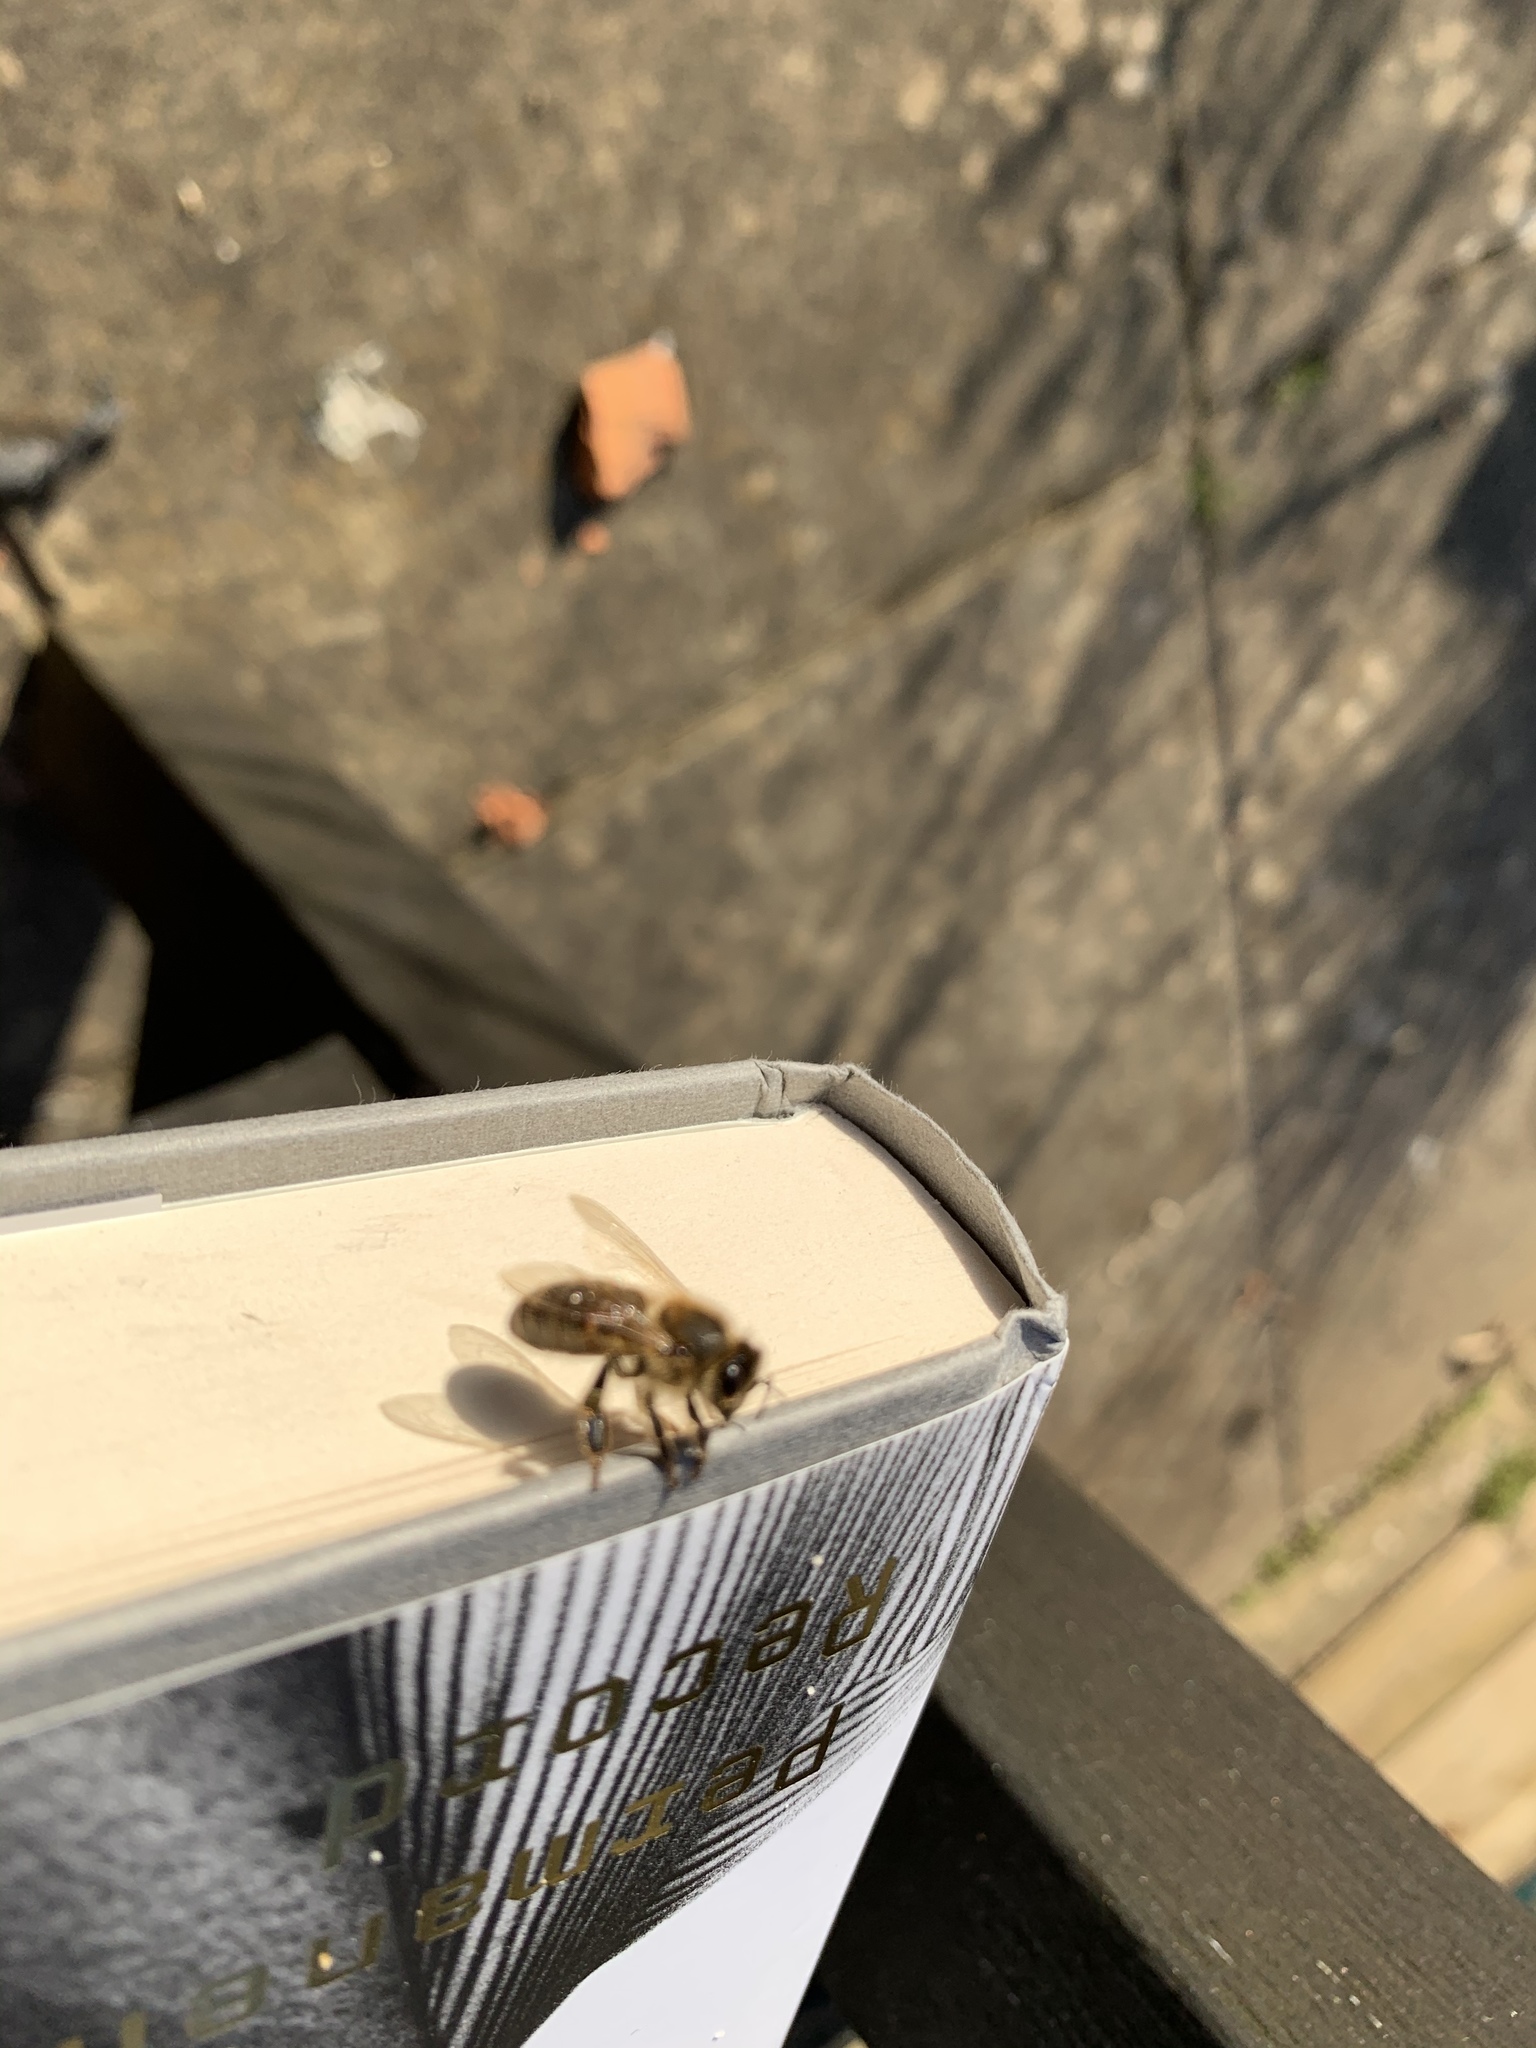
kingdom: Animalia
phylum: Arthropoda
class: Insecta
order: Hymenoptera
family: Apidae
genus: Apis
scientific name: Apis mellifera
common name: Honey bee
